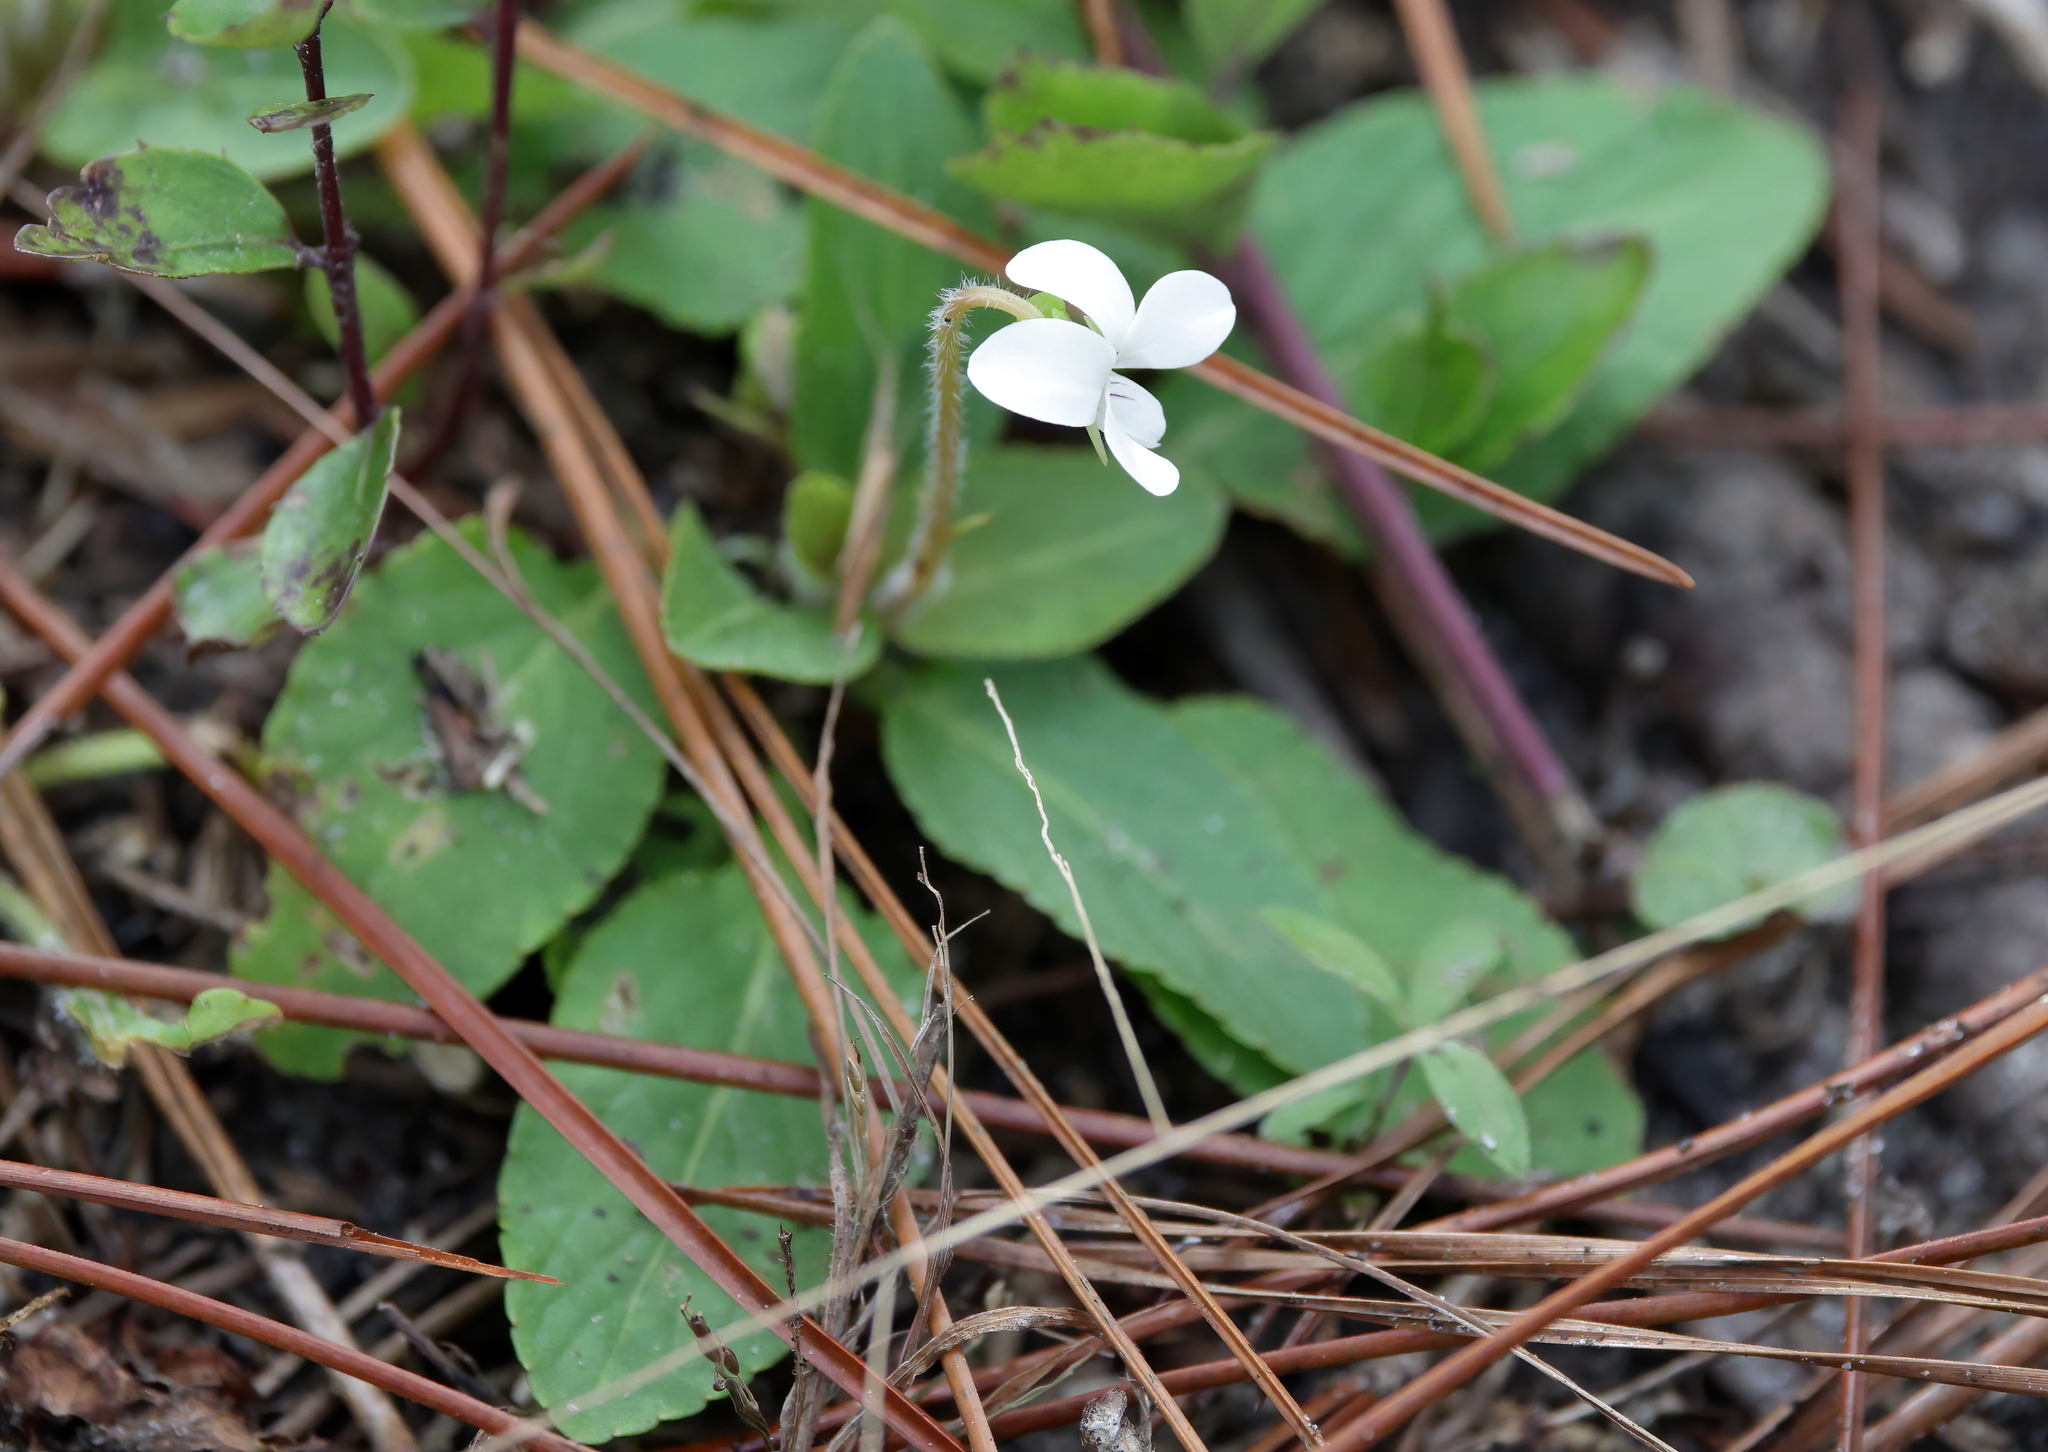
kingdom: Plantae
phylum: Tracheophyta
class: Magnoliopsida
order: Malpighiales
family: Violaceae
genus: Viola
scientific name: Viola primulifolia
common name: Primrose-leaf violet
